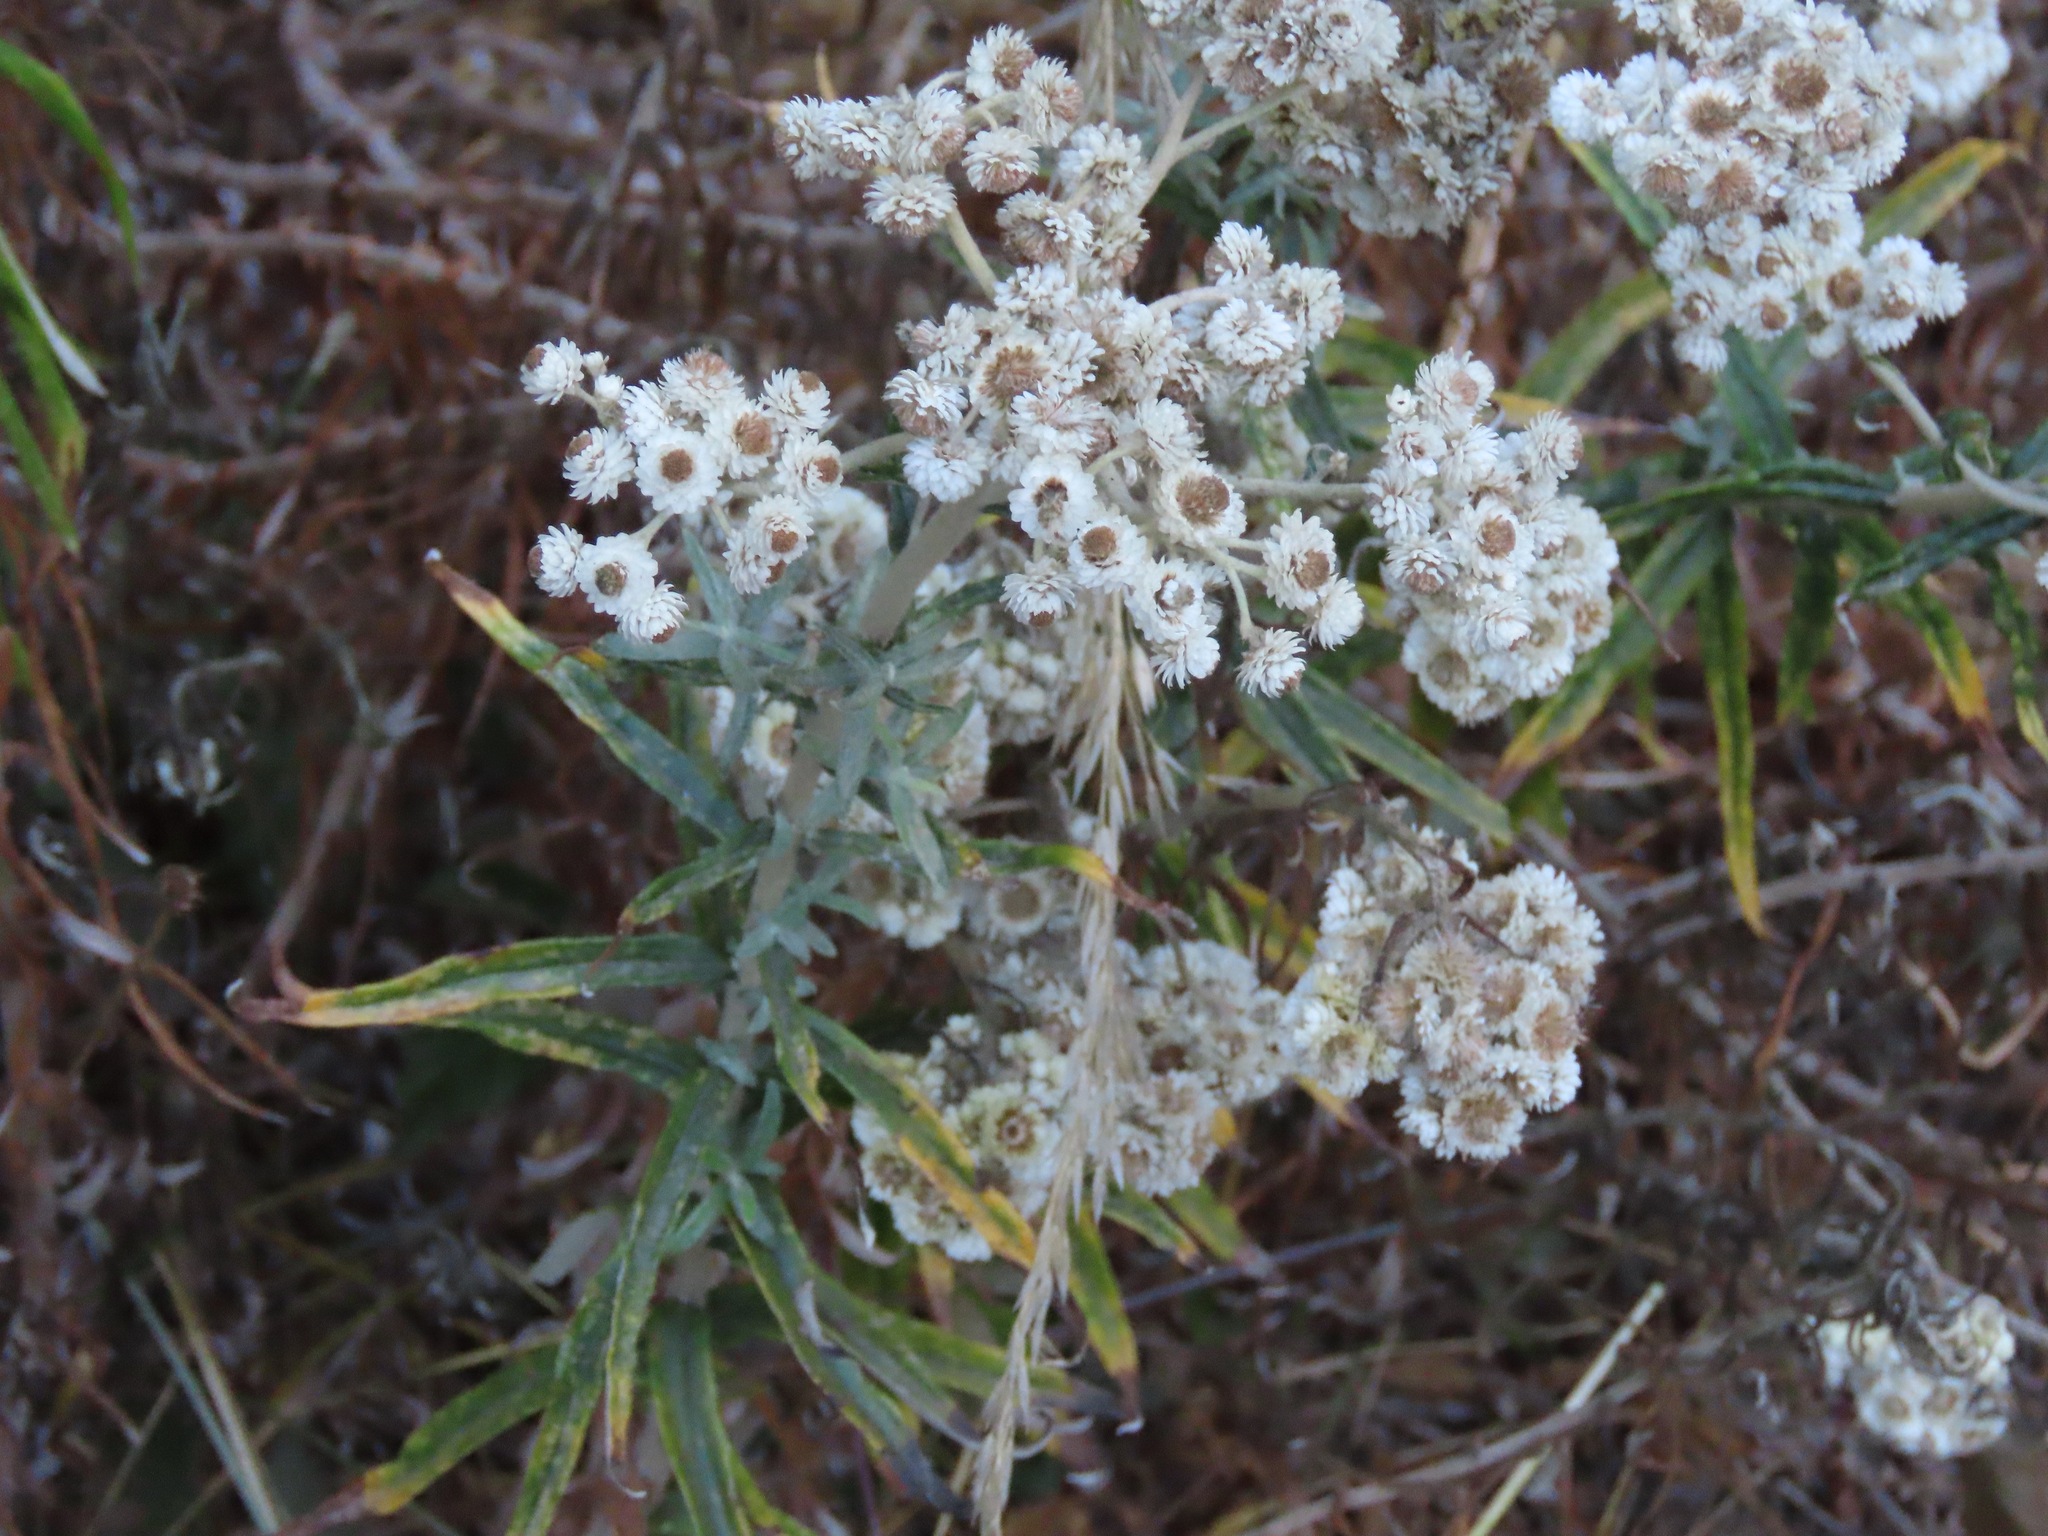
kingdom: Plantae
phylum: Tracheophyta
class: Magnoliopsida
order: Asterales
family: Asteraceae
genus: Anaphalis
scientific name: Anaphalis margaritacea
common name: Pearly everlasting
